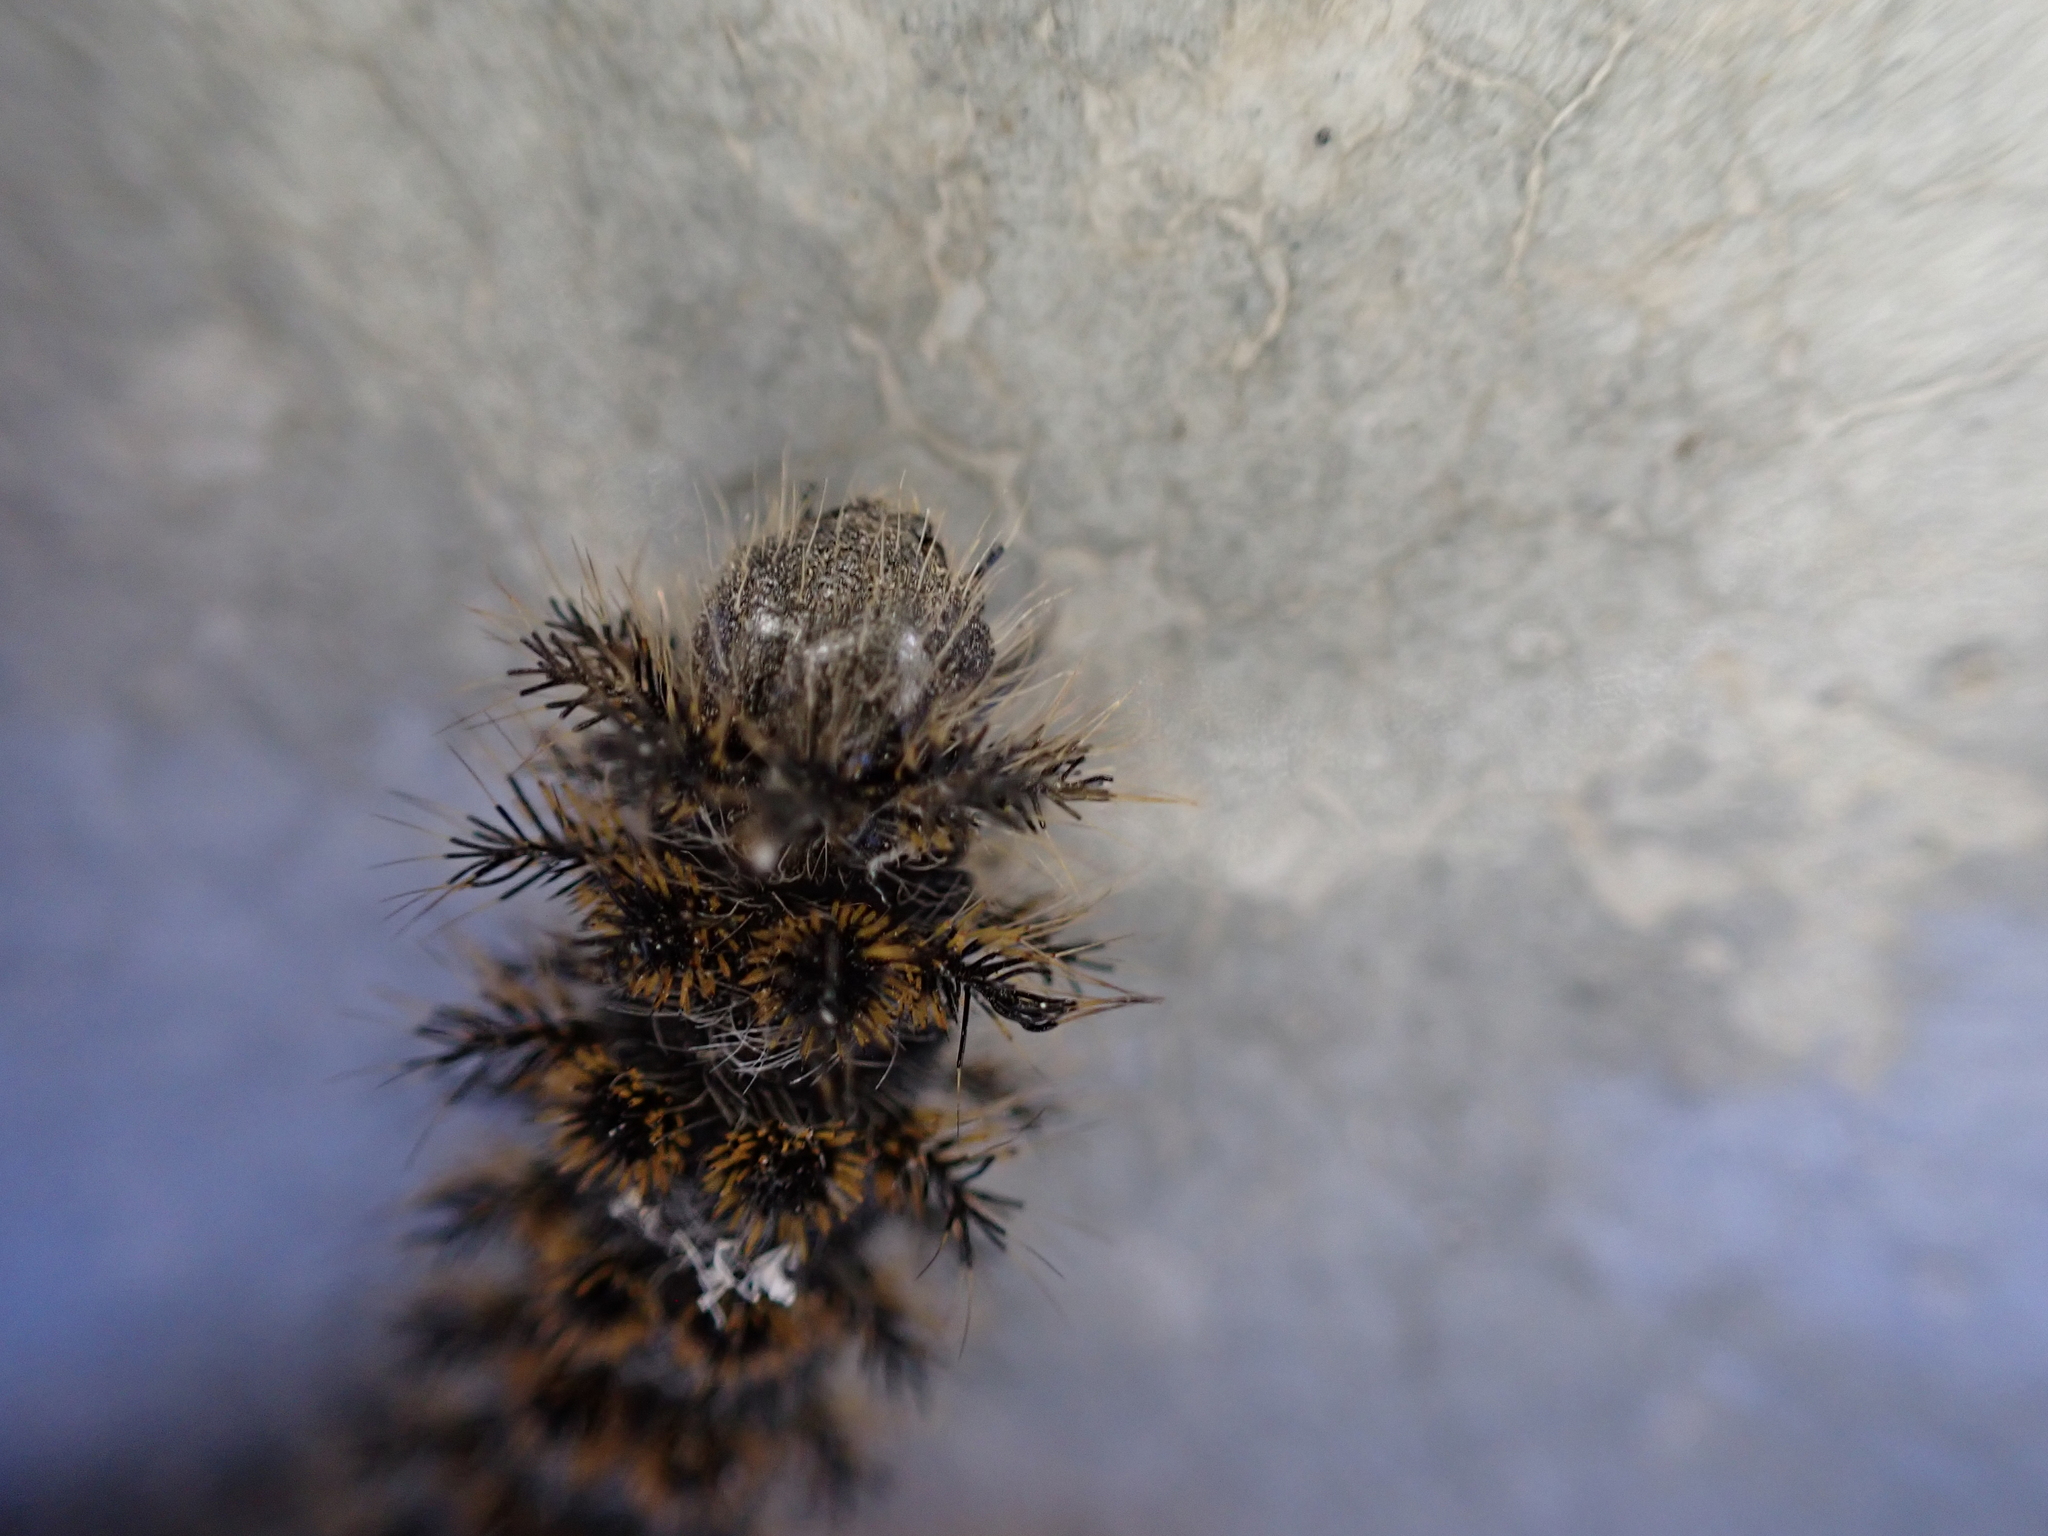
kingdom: Animalia
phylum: Arthropoda
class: Insecta
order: Lepidoptera
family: Saturniidae
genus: Hemileuca
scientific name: Hemileuca eglanterina
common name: Western sheepmoth
